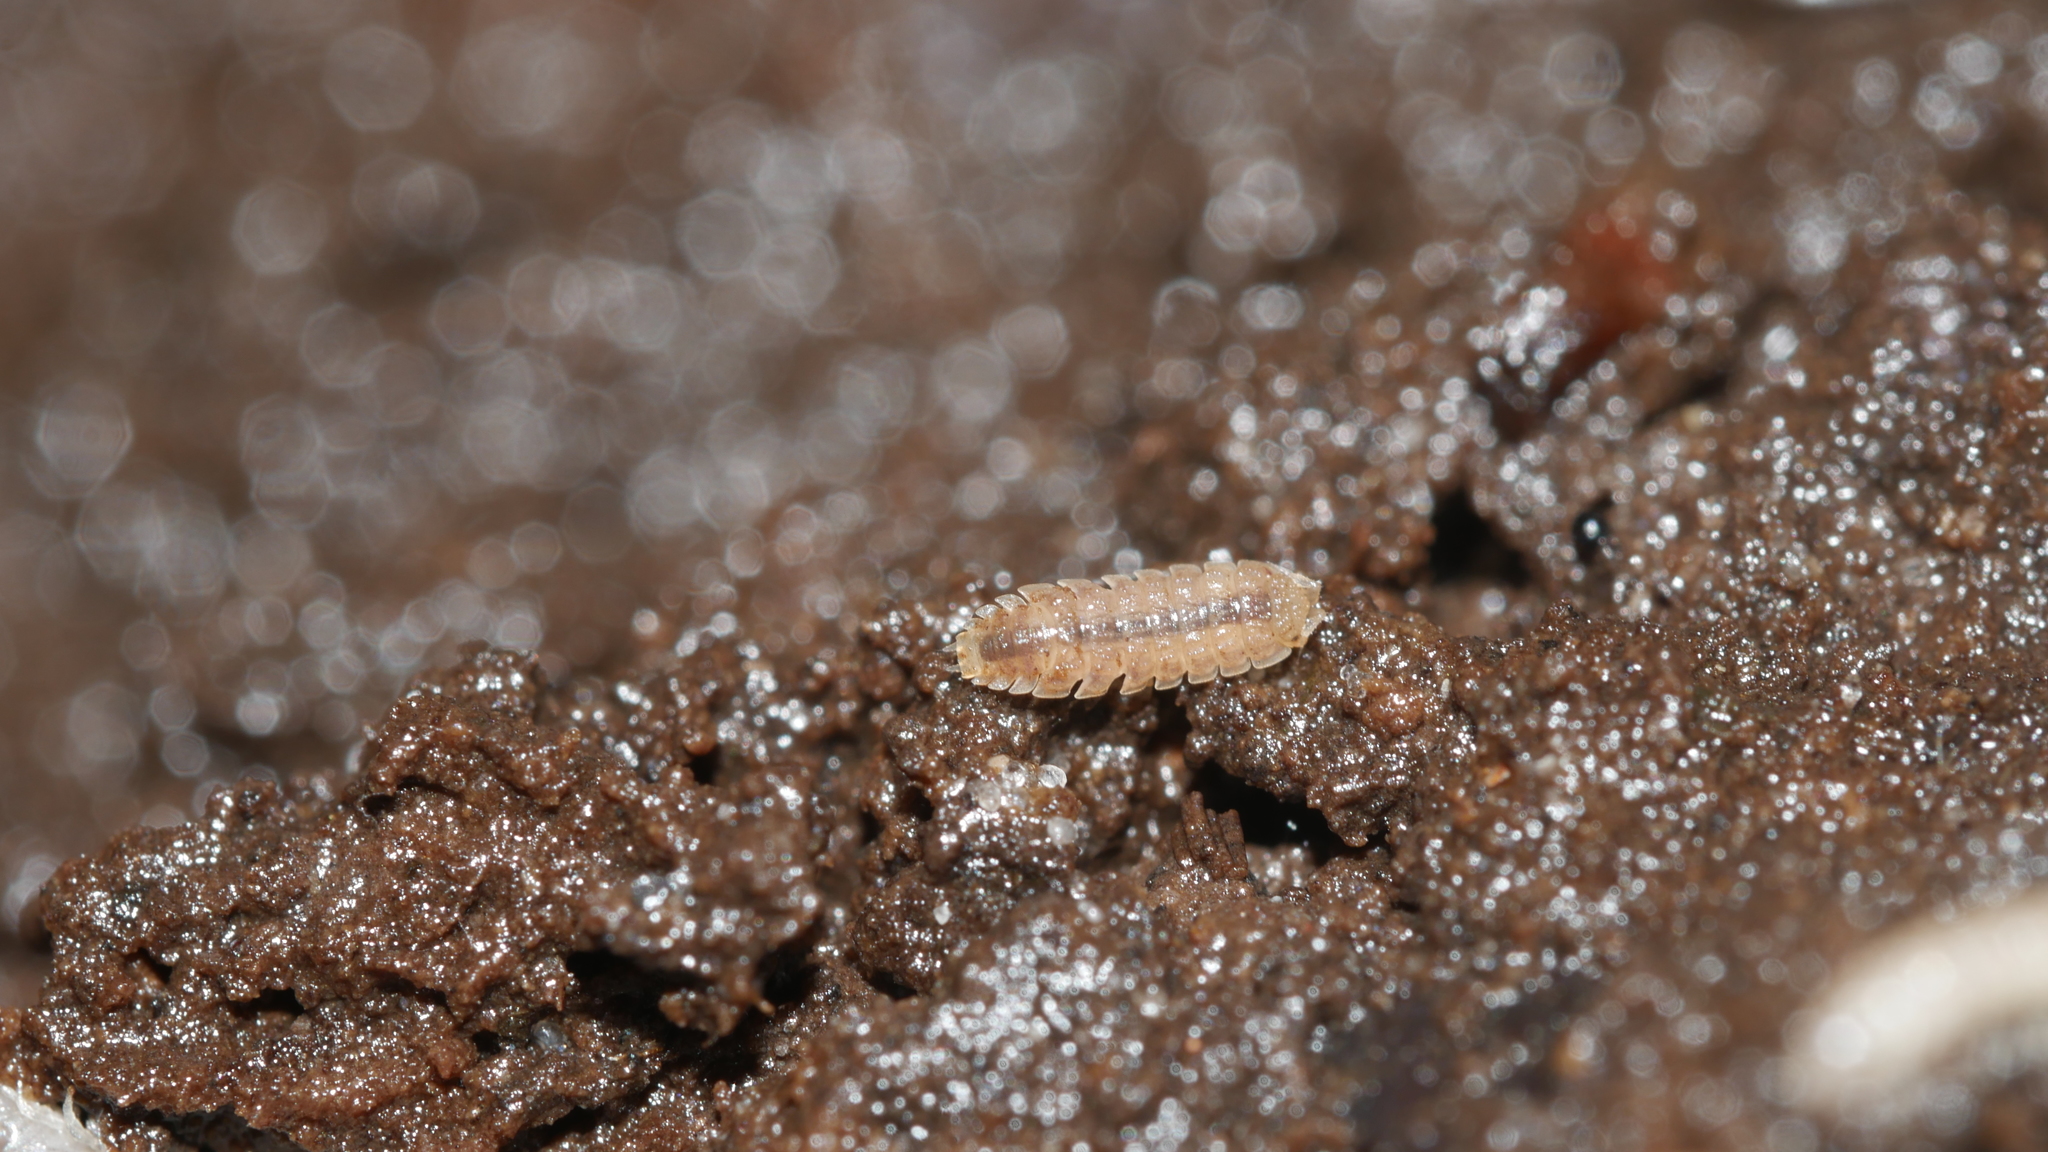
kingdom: Animalia
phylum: Arthropoda
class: Malacostraca
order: Isopoda
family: Trichoniscidae
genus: Haplophthalmus
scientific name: Haplophthalmus danicus
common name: Pillbug
